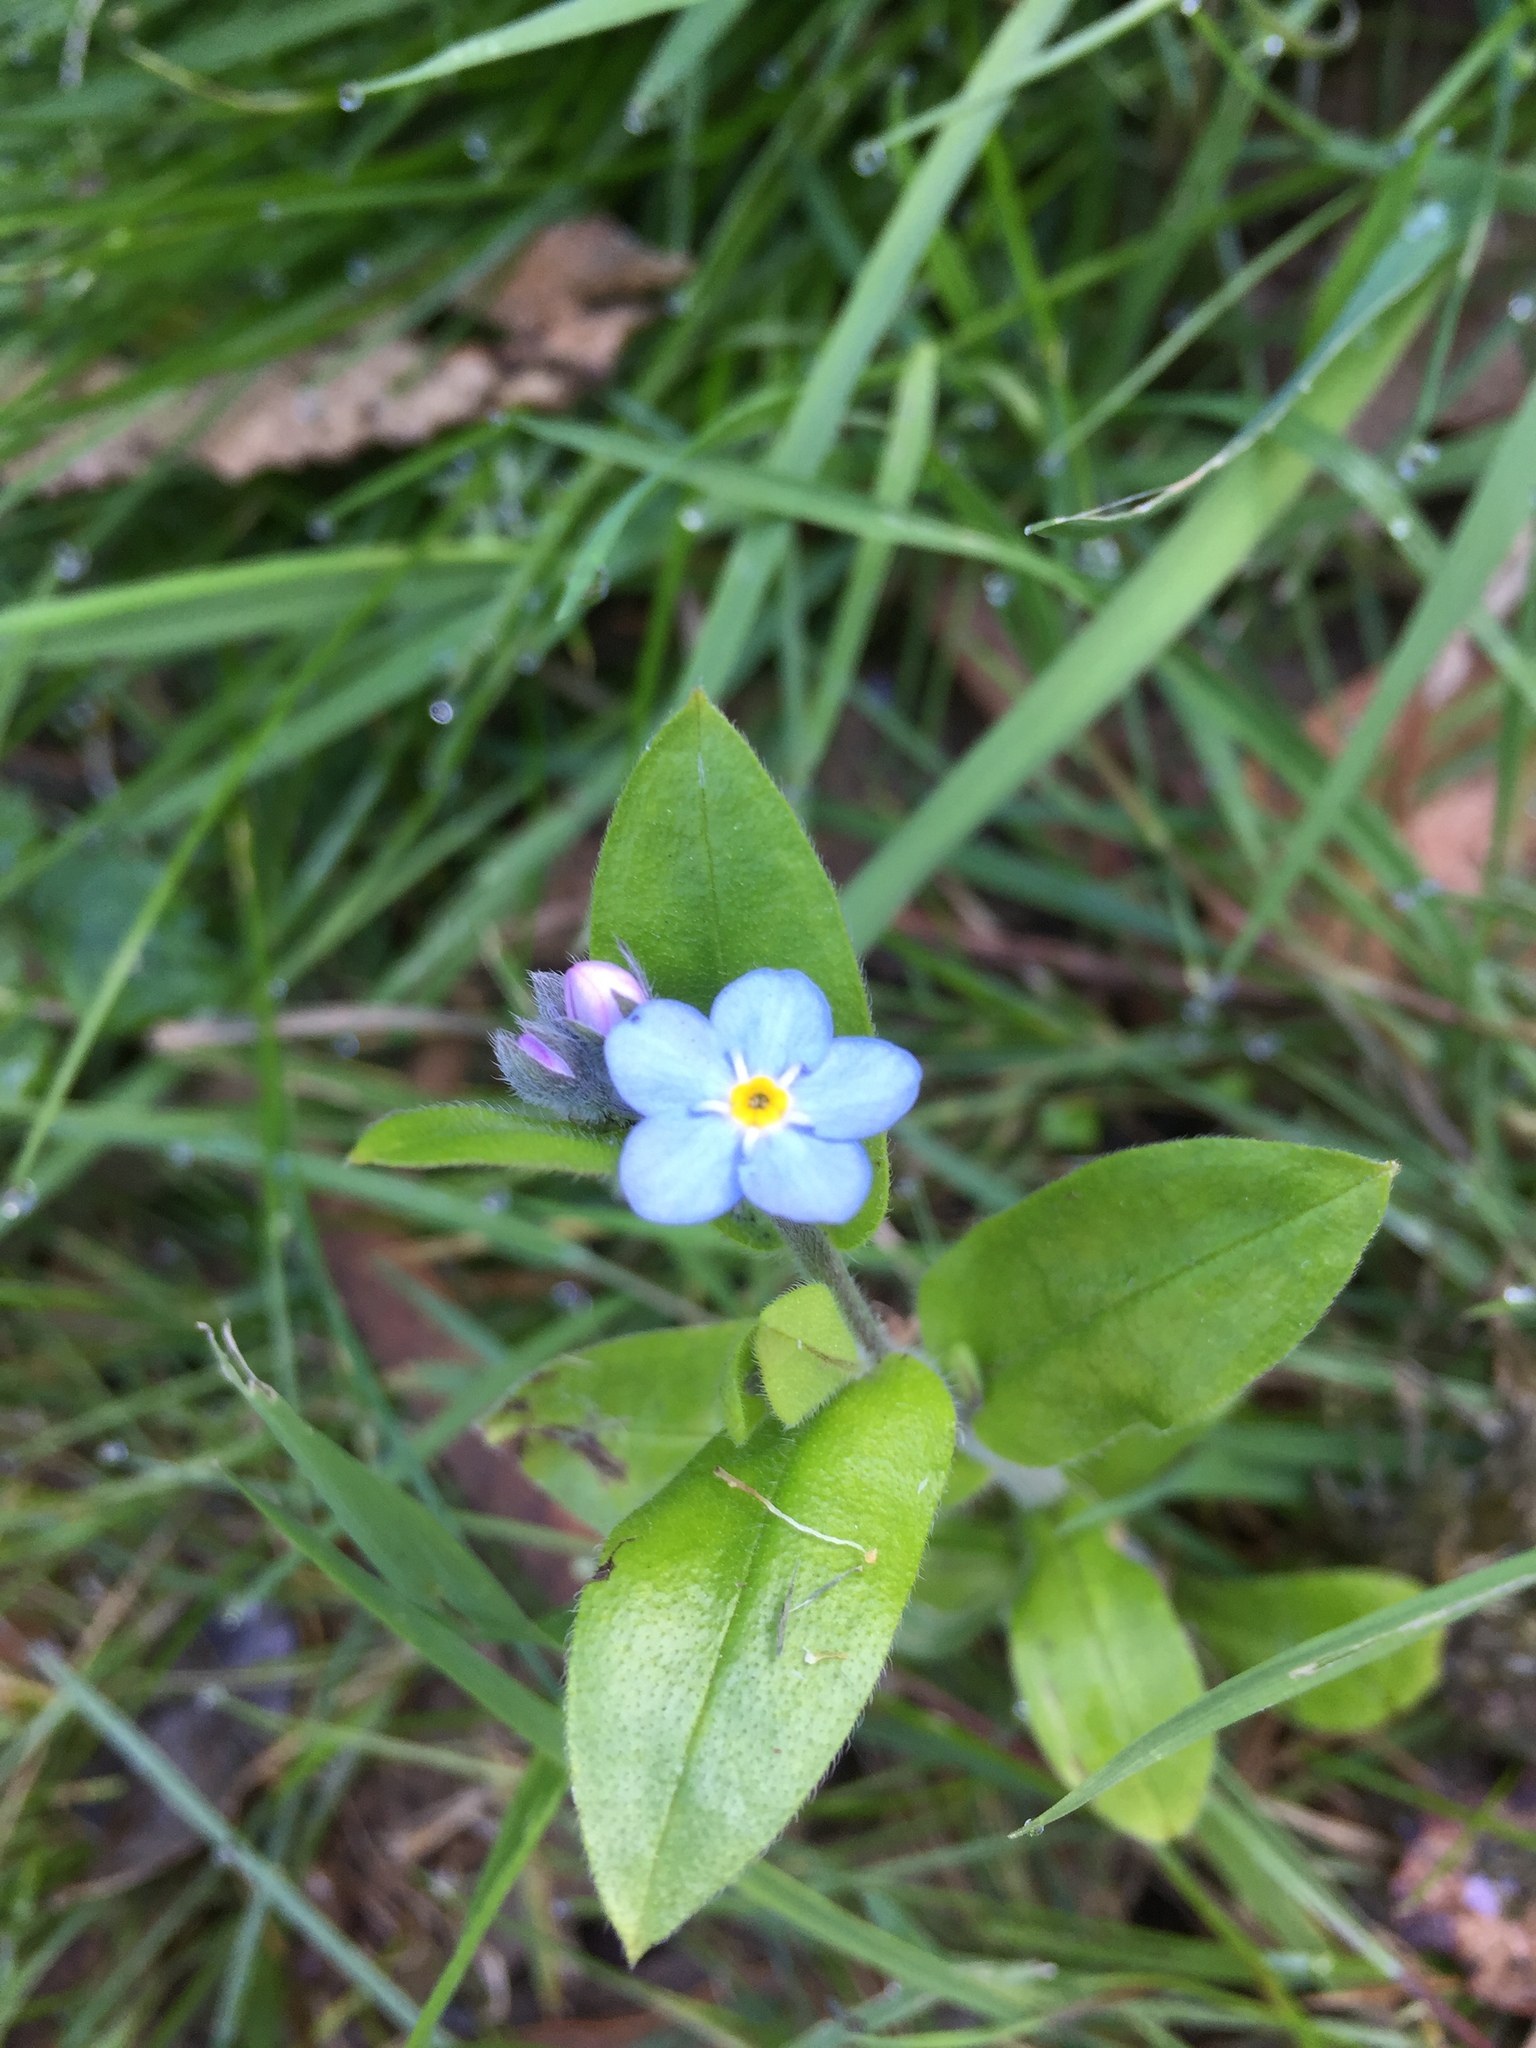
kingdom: Plantae
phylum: Tracheophyta
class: Magnoliopsida
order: Boraginales
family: Boraginaceae
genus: Myosotis
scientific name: Myosotis latifolia
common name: Broadleaf forget-me-not
